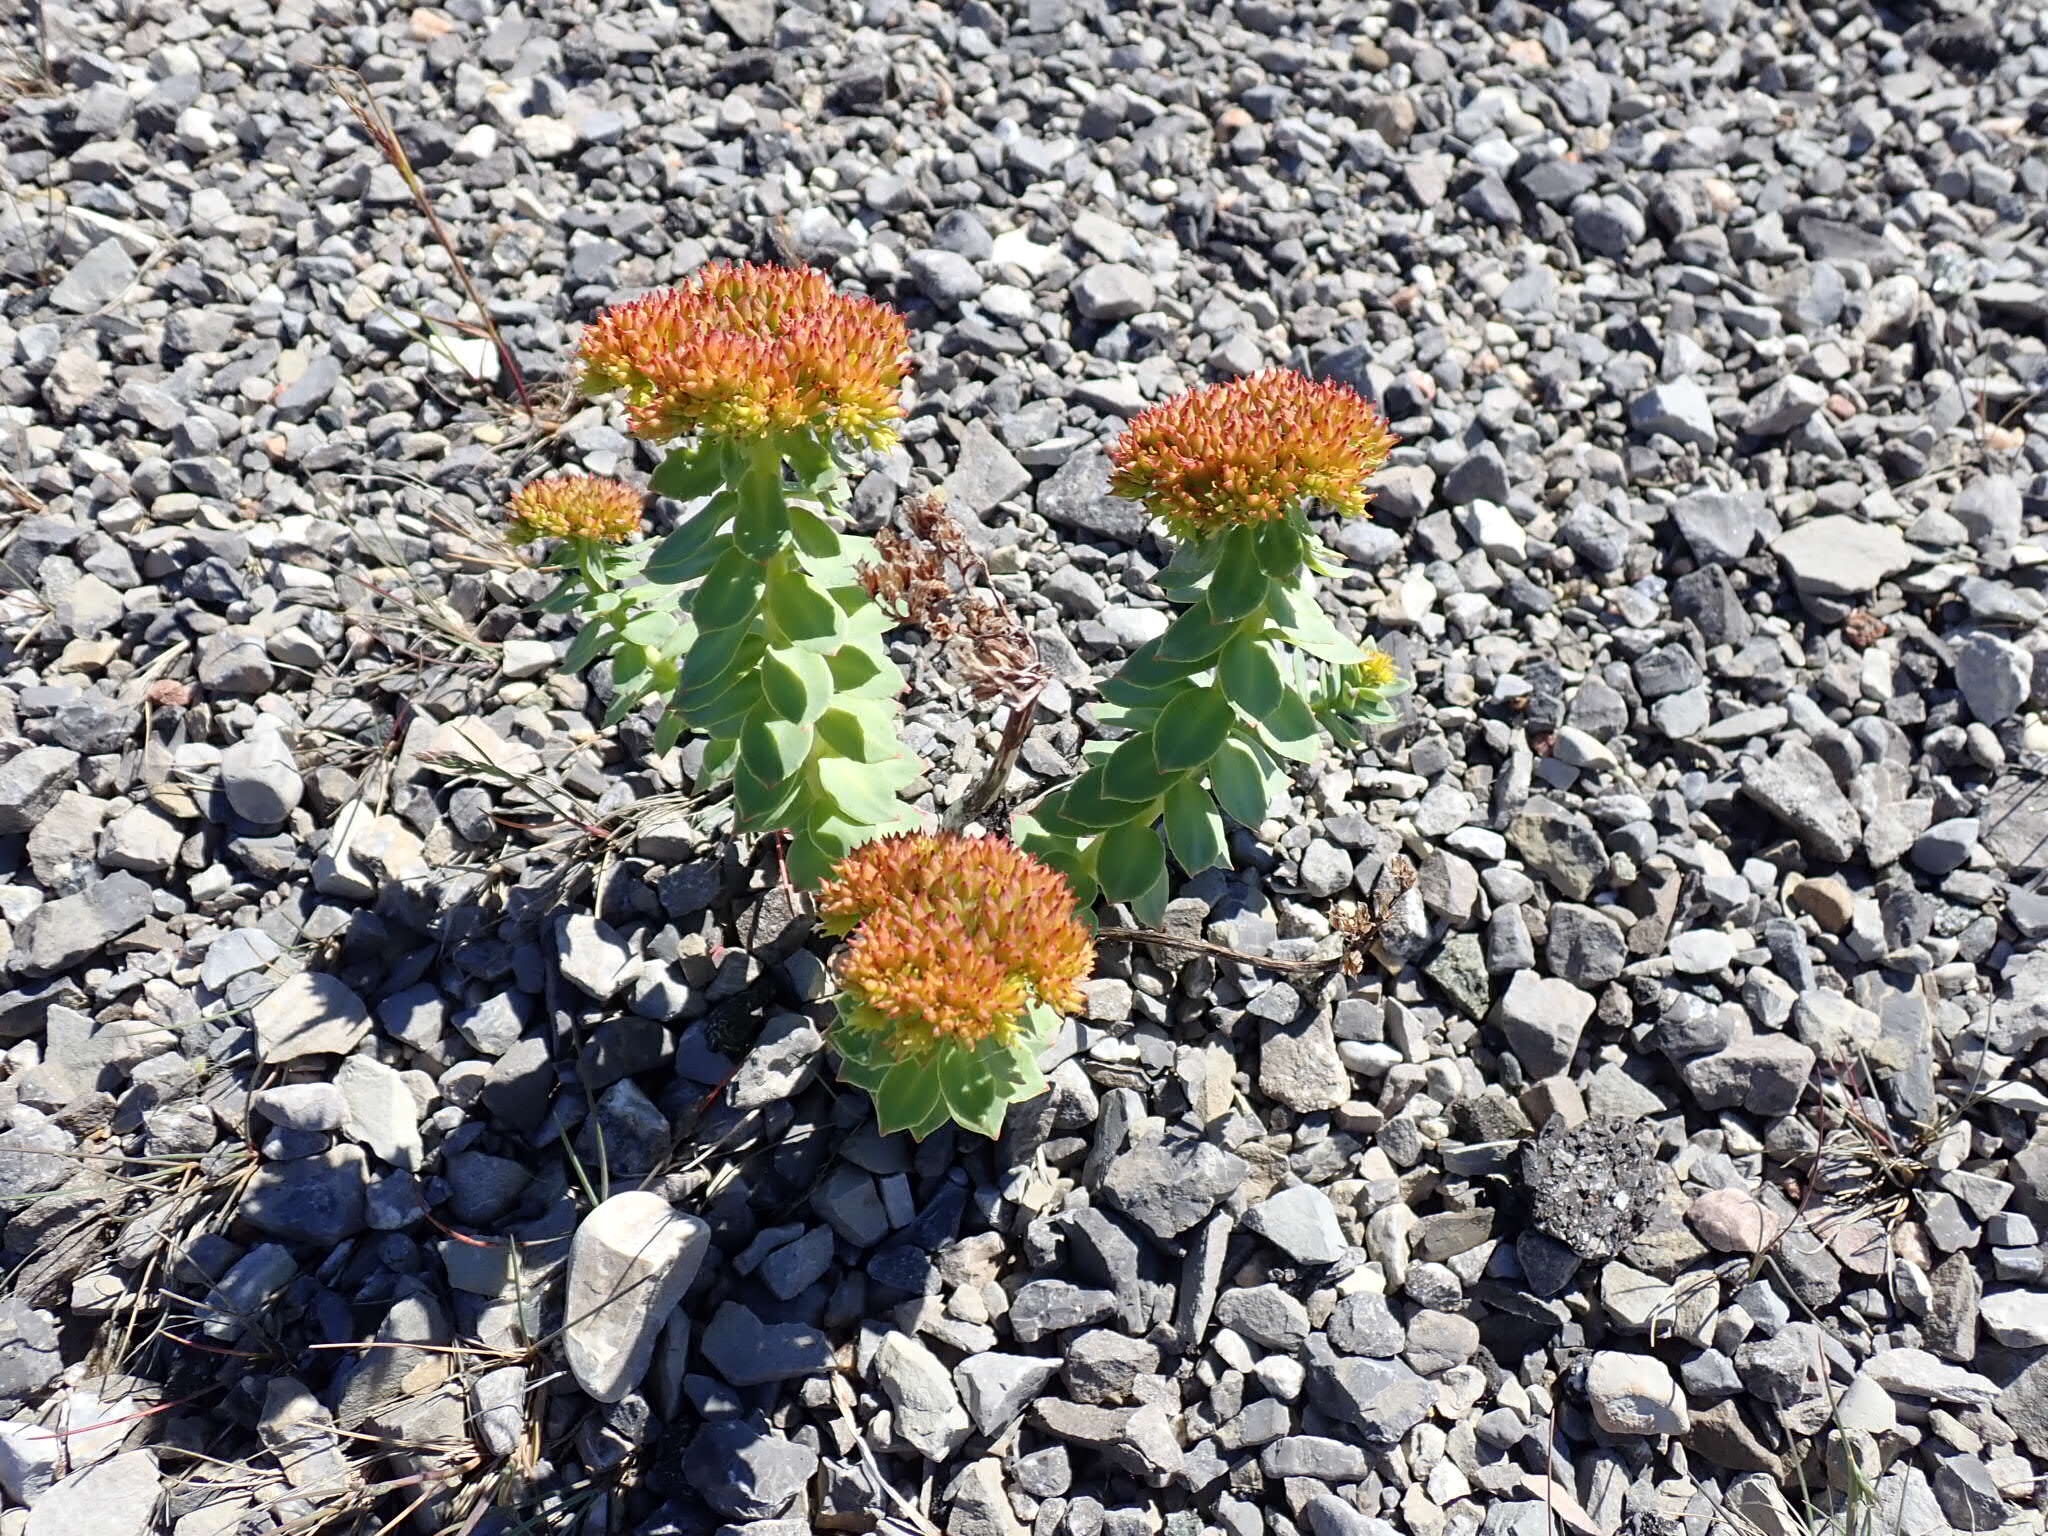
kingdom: Plantae
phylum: Tracheophyta
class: Magnoliopsida
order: Saxifragales
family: Crassulaceae
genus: Rhodiola
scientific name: Rhodiola rosea
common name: Roseroot
